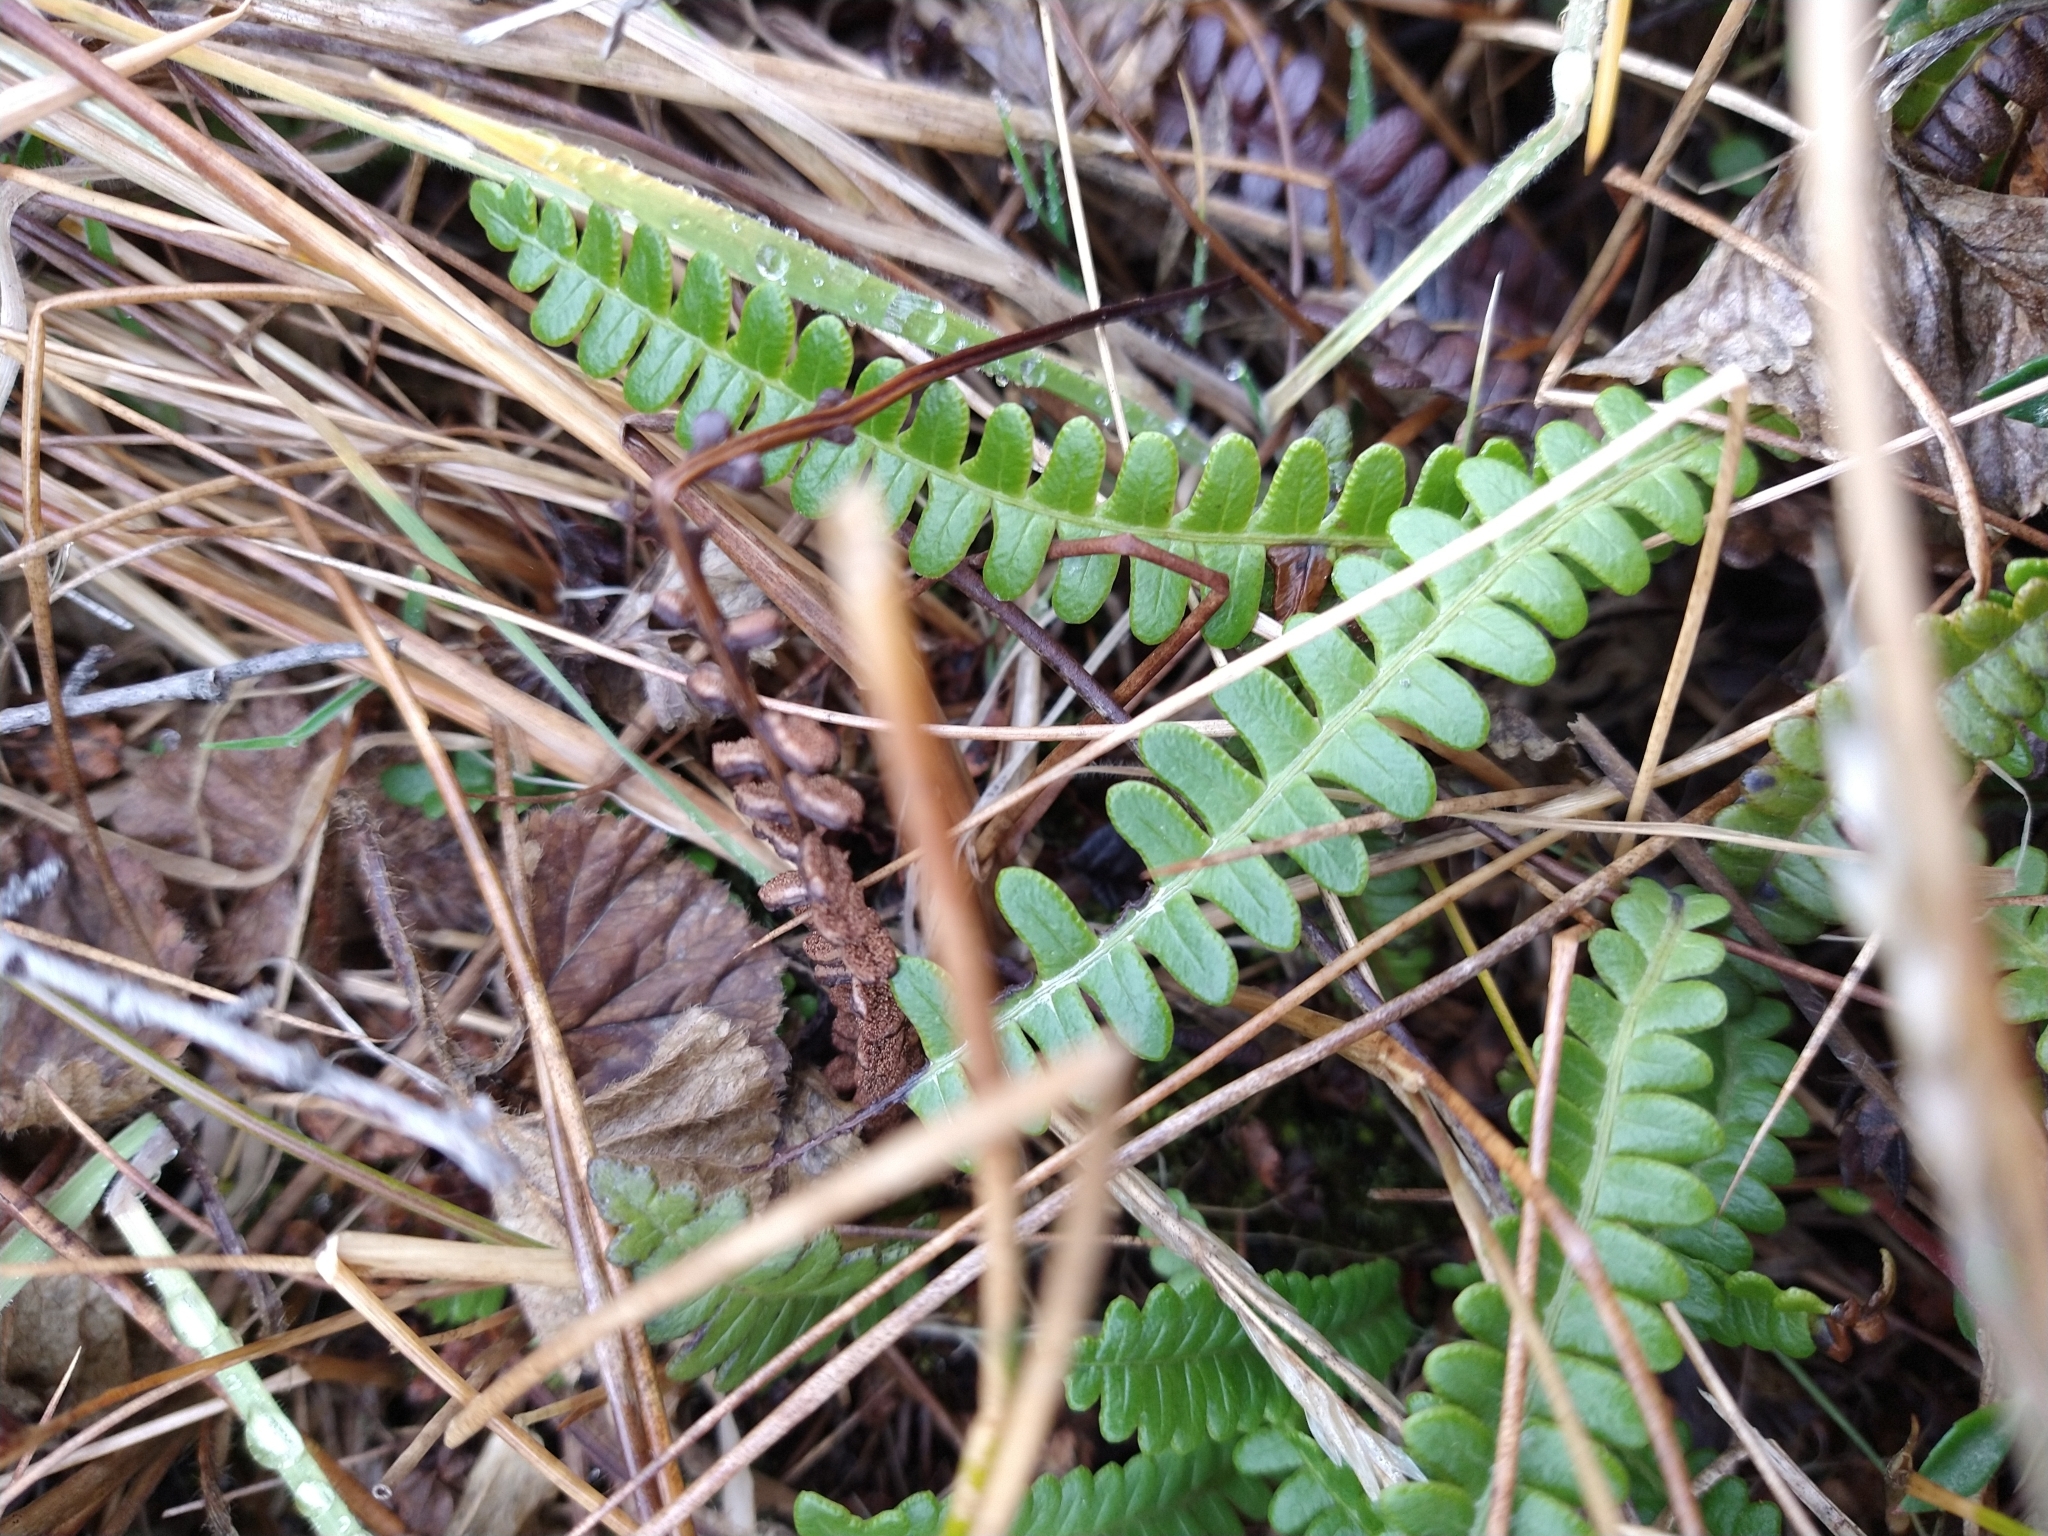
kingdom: Plantae
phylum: Tracheophyta
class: Polypodiopsida
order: Polypodiales
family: Blechnaceae
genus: Austroblechnum
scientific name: Austroblechnum penna-marina
